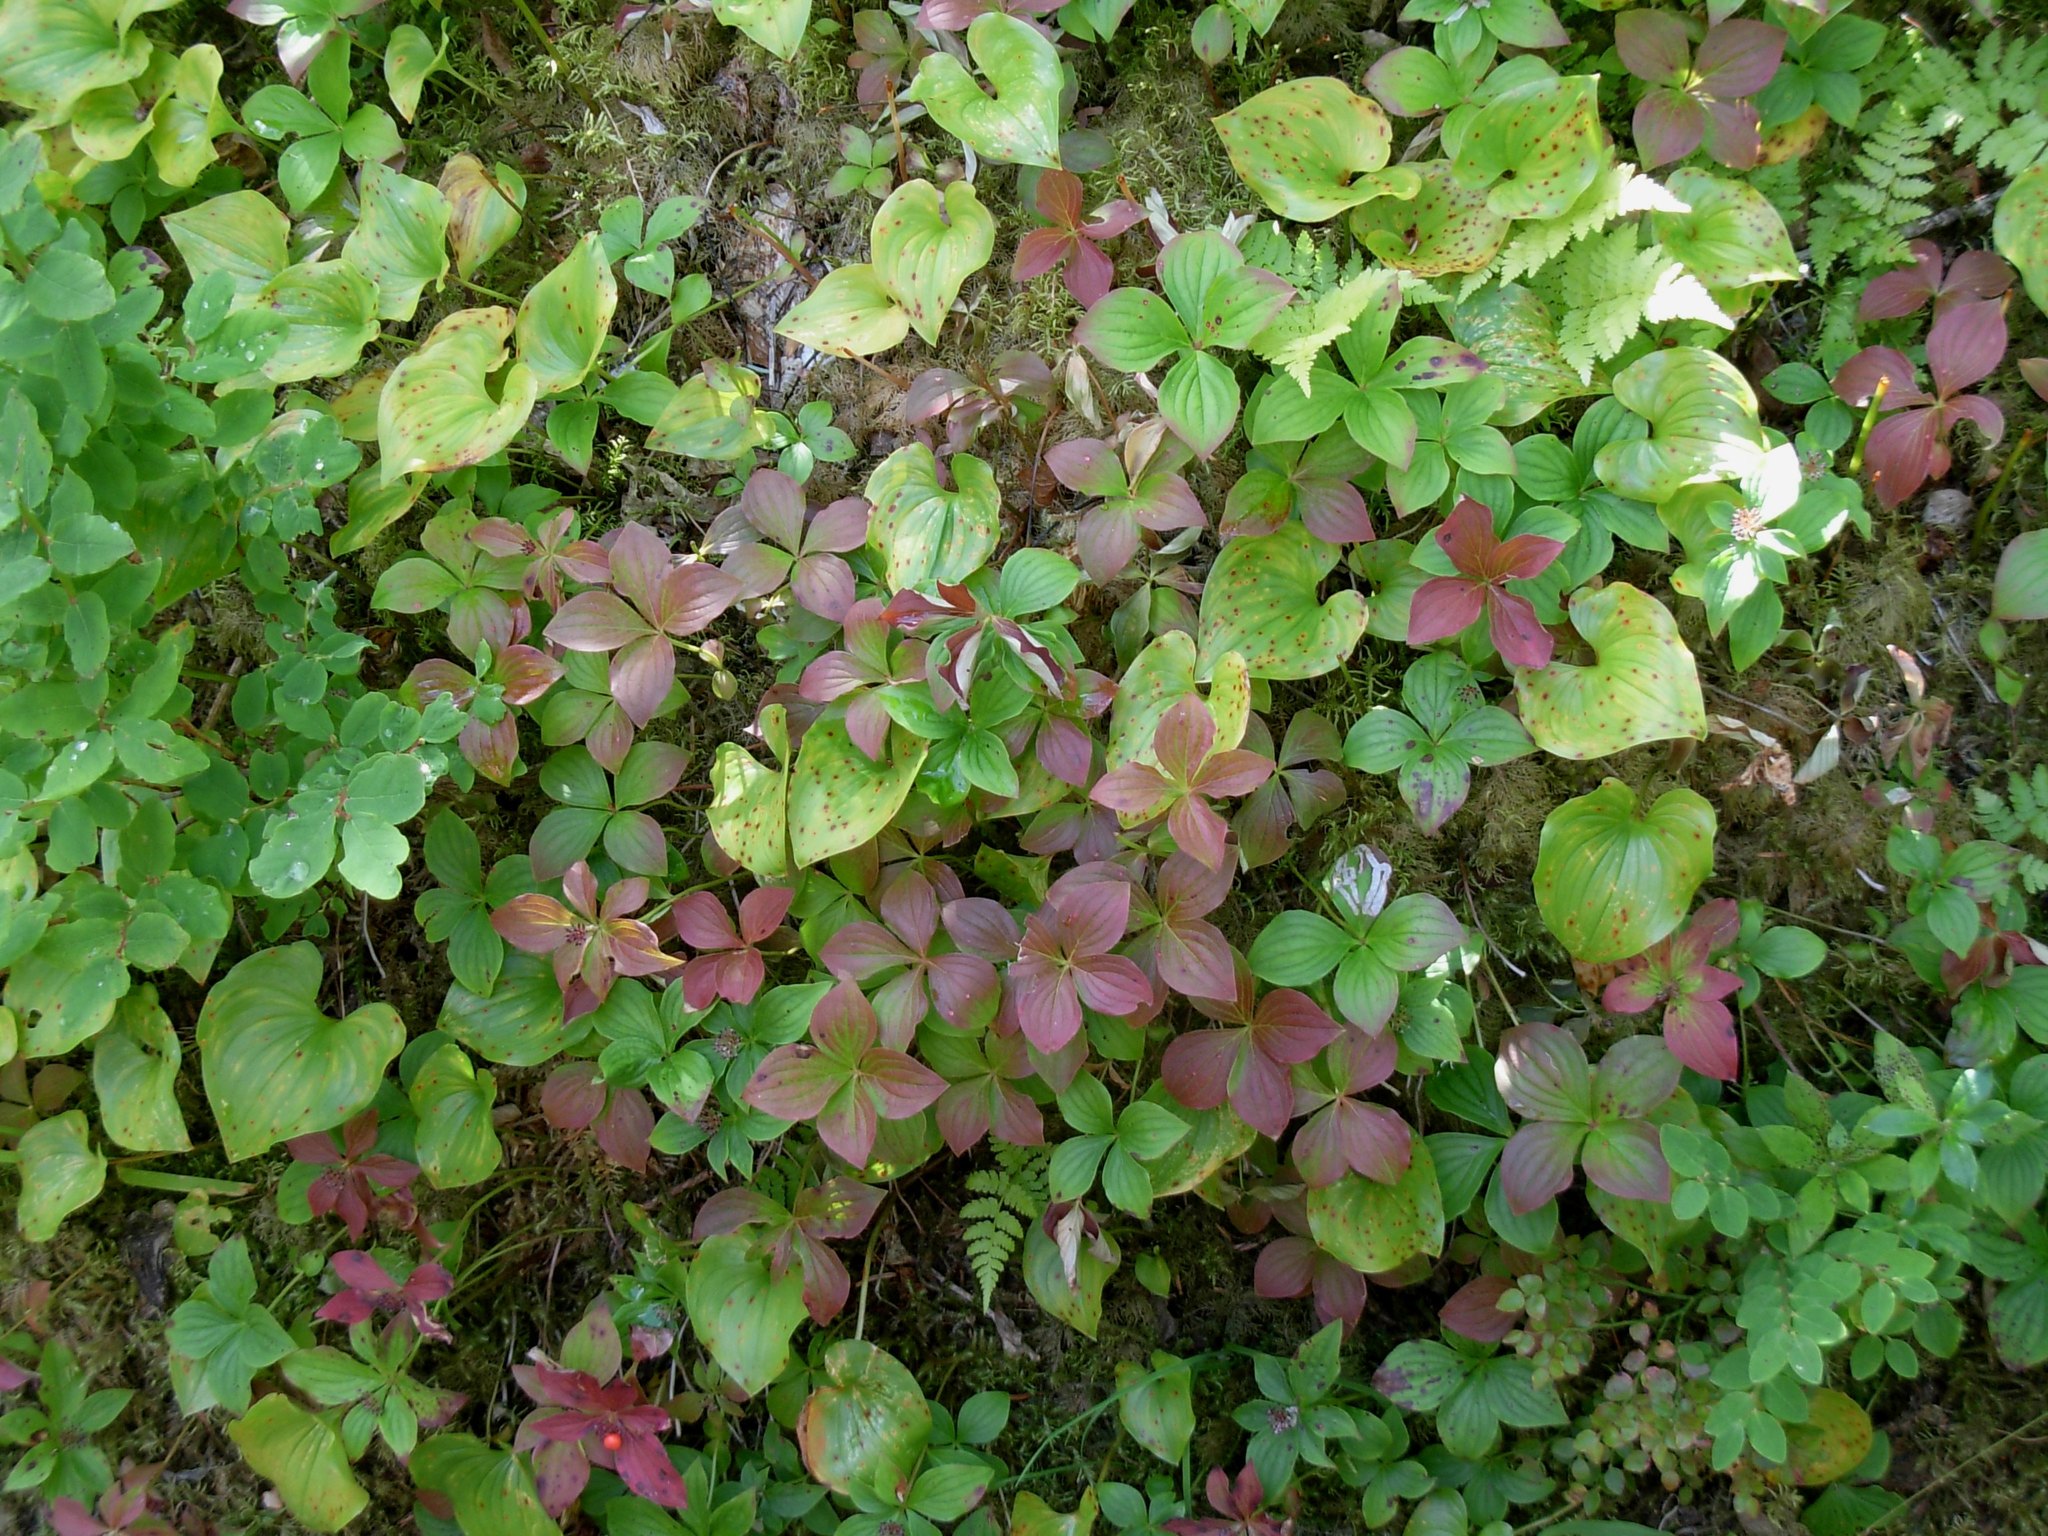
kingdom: Plantae
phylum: Tracheophyta
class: Magnoliopsida
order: Cornales
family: Cornaceae
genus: Cornus
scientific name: Cornus unalaschkensis
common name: Alaska bunchberry
